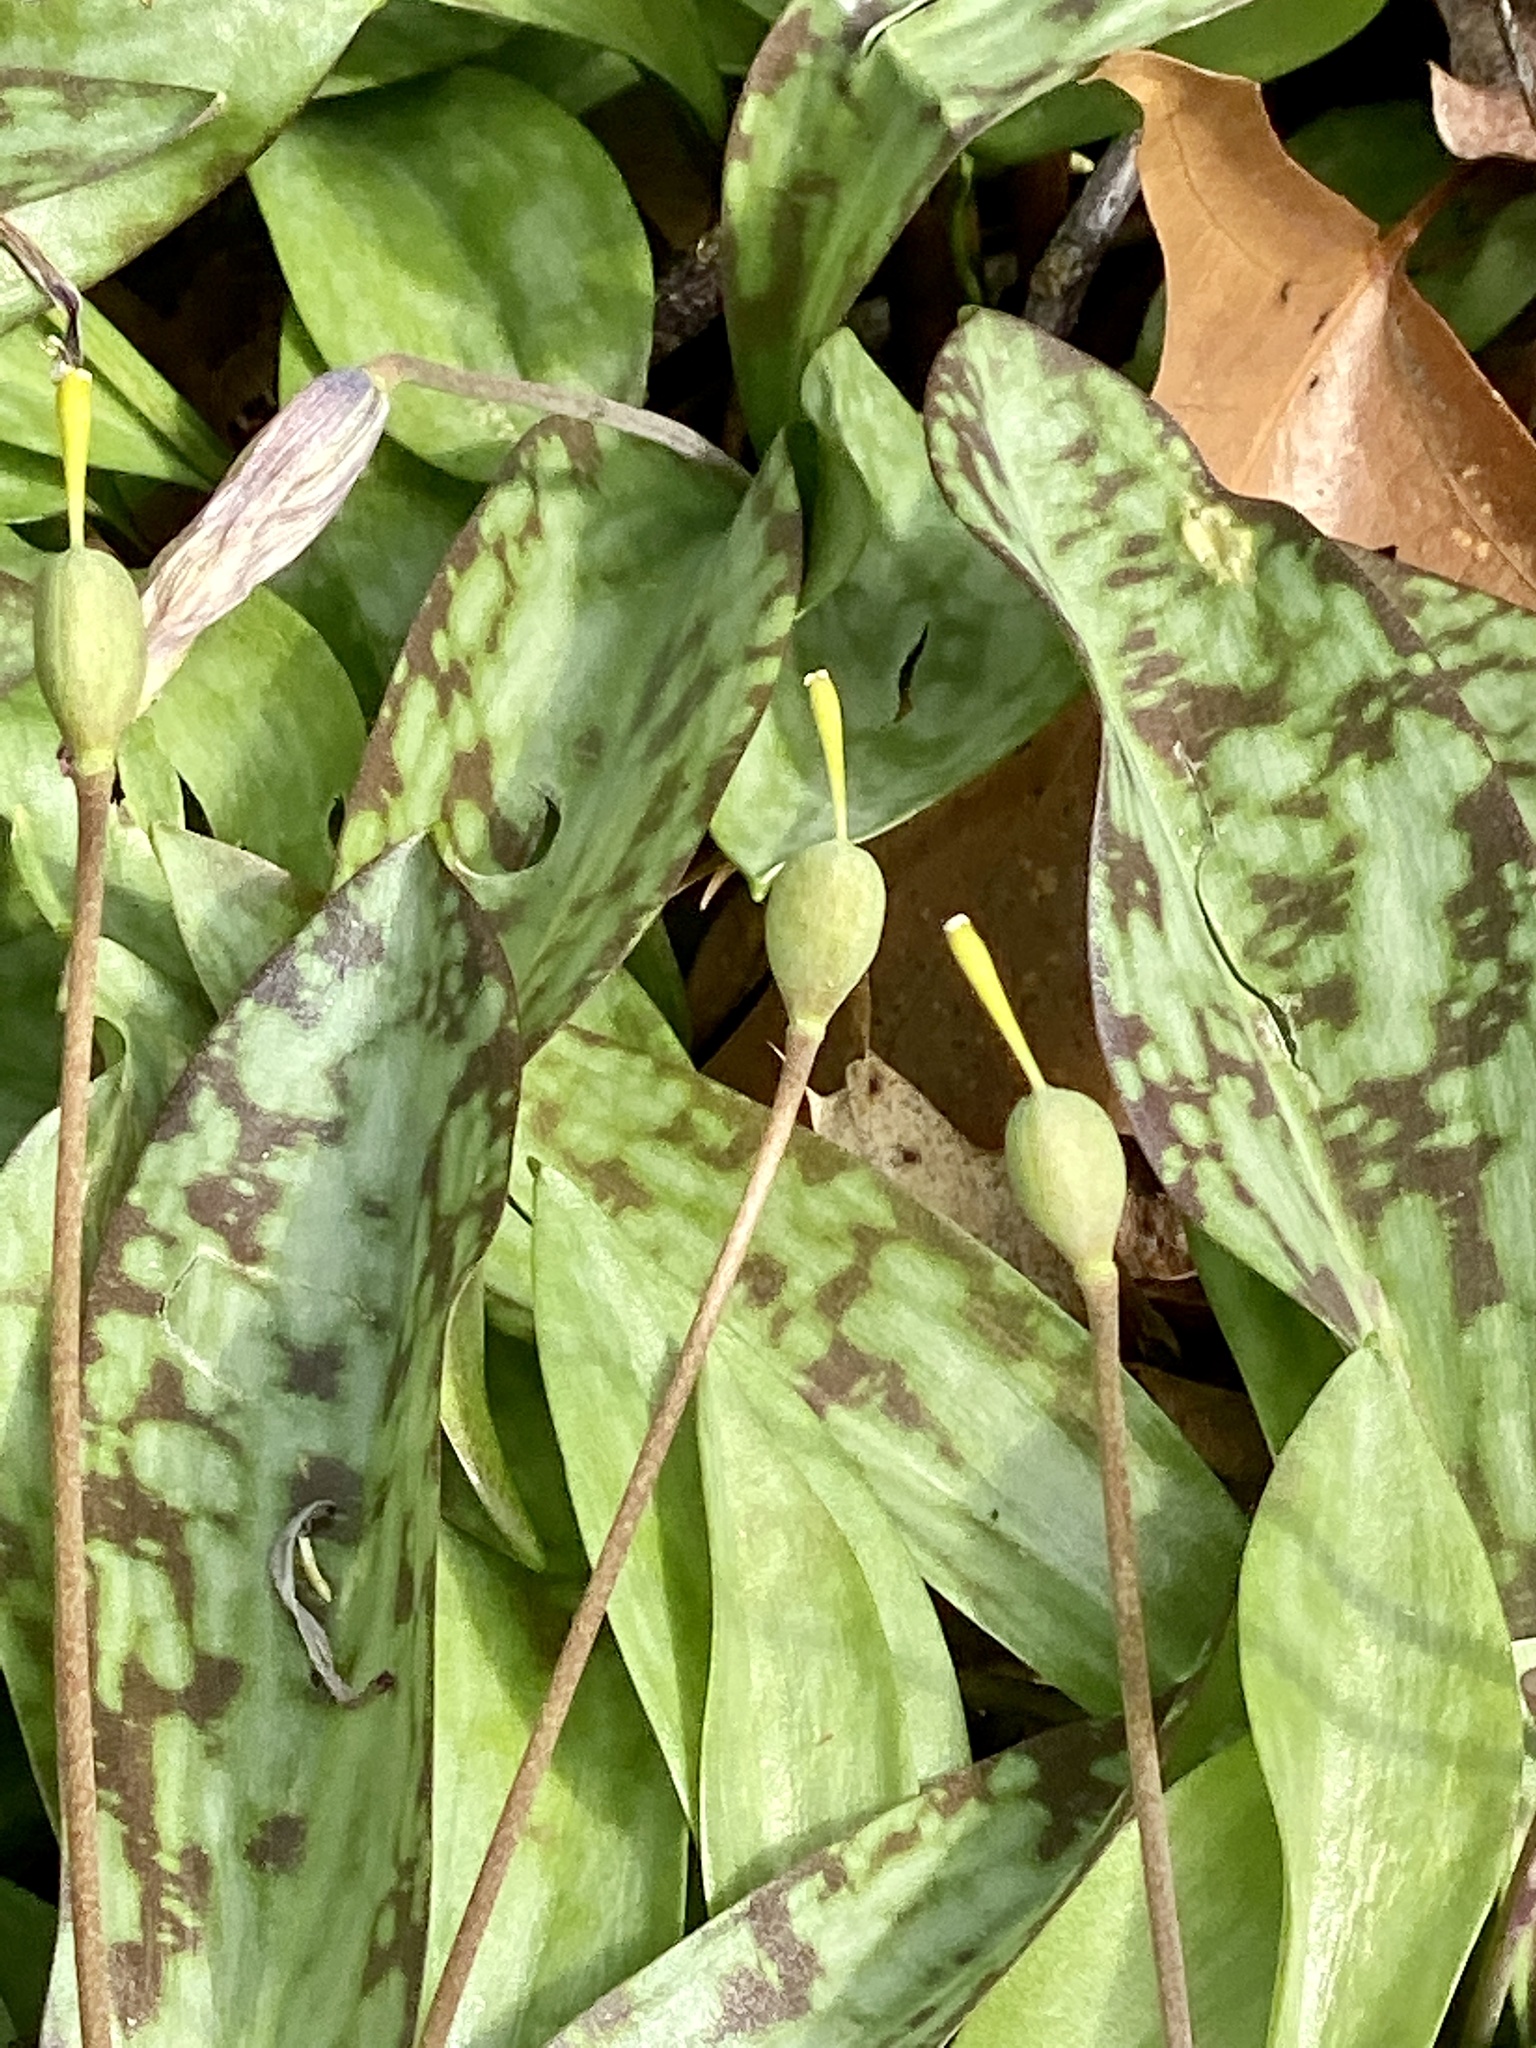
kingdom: Plantae
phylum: Tracheophyta
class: Liliopsida
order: Liliales
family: Liliaceae
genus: Erythronium
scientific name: Erythronium americanum
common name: Yellow adder's-tongue
